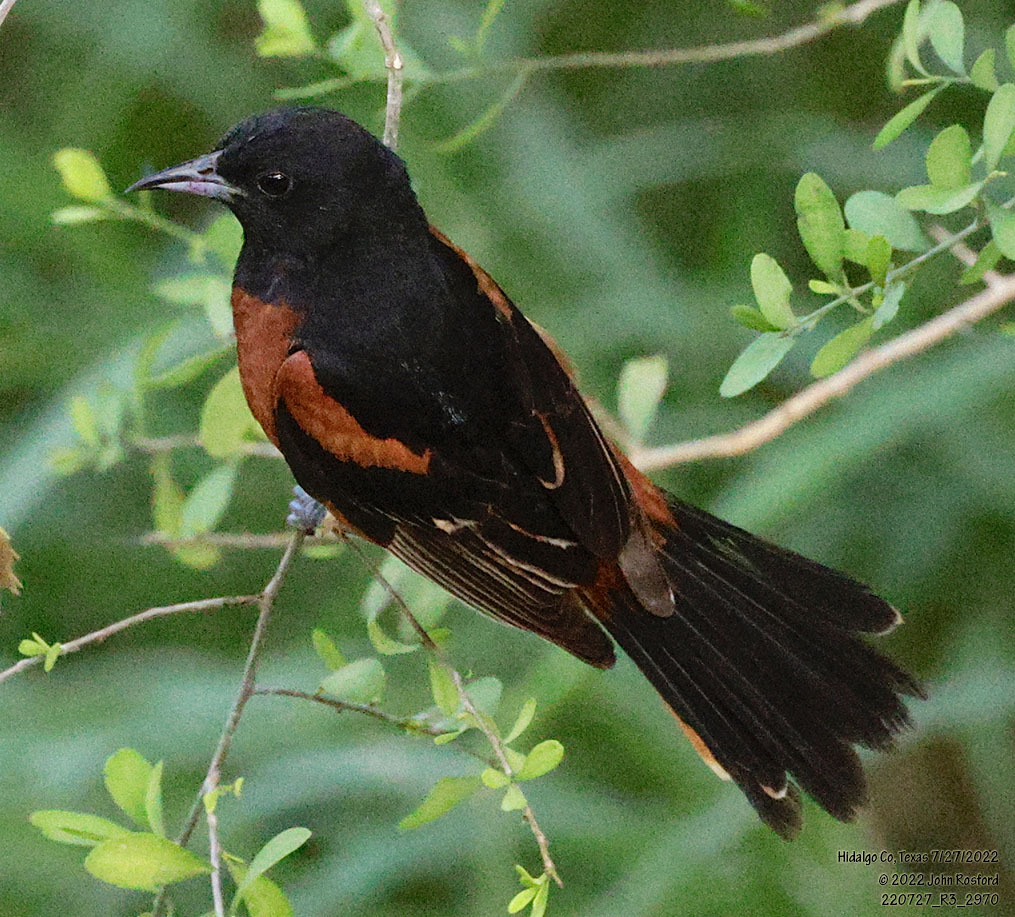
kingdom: Animalia
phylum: Chordata
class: Aves
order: Passeriformes
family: Icteridae
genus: Icterus
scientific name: Icterus spurius
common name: Orchard oriole
